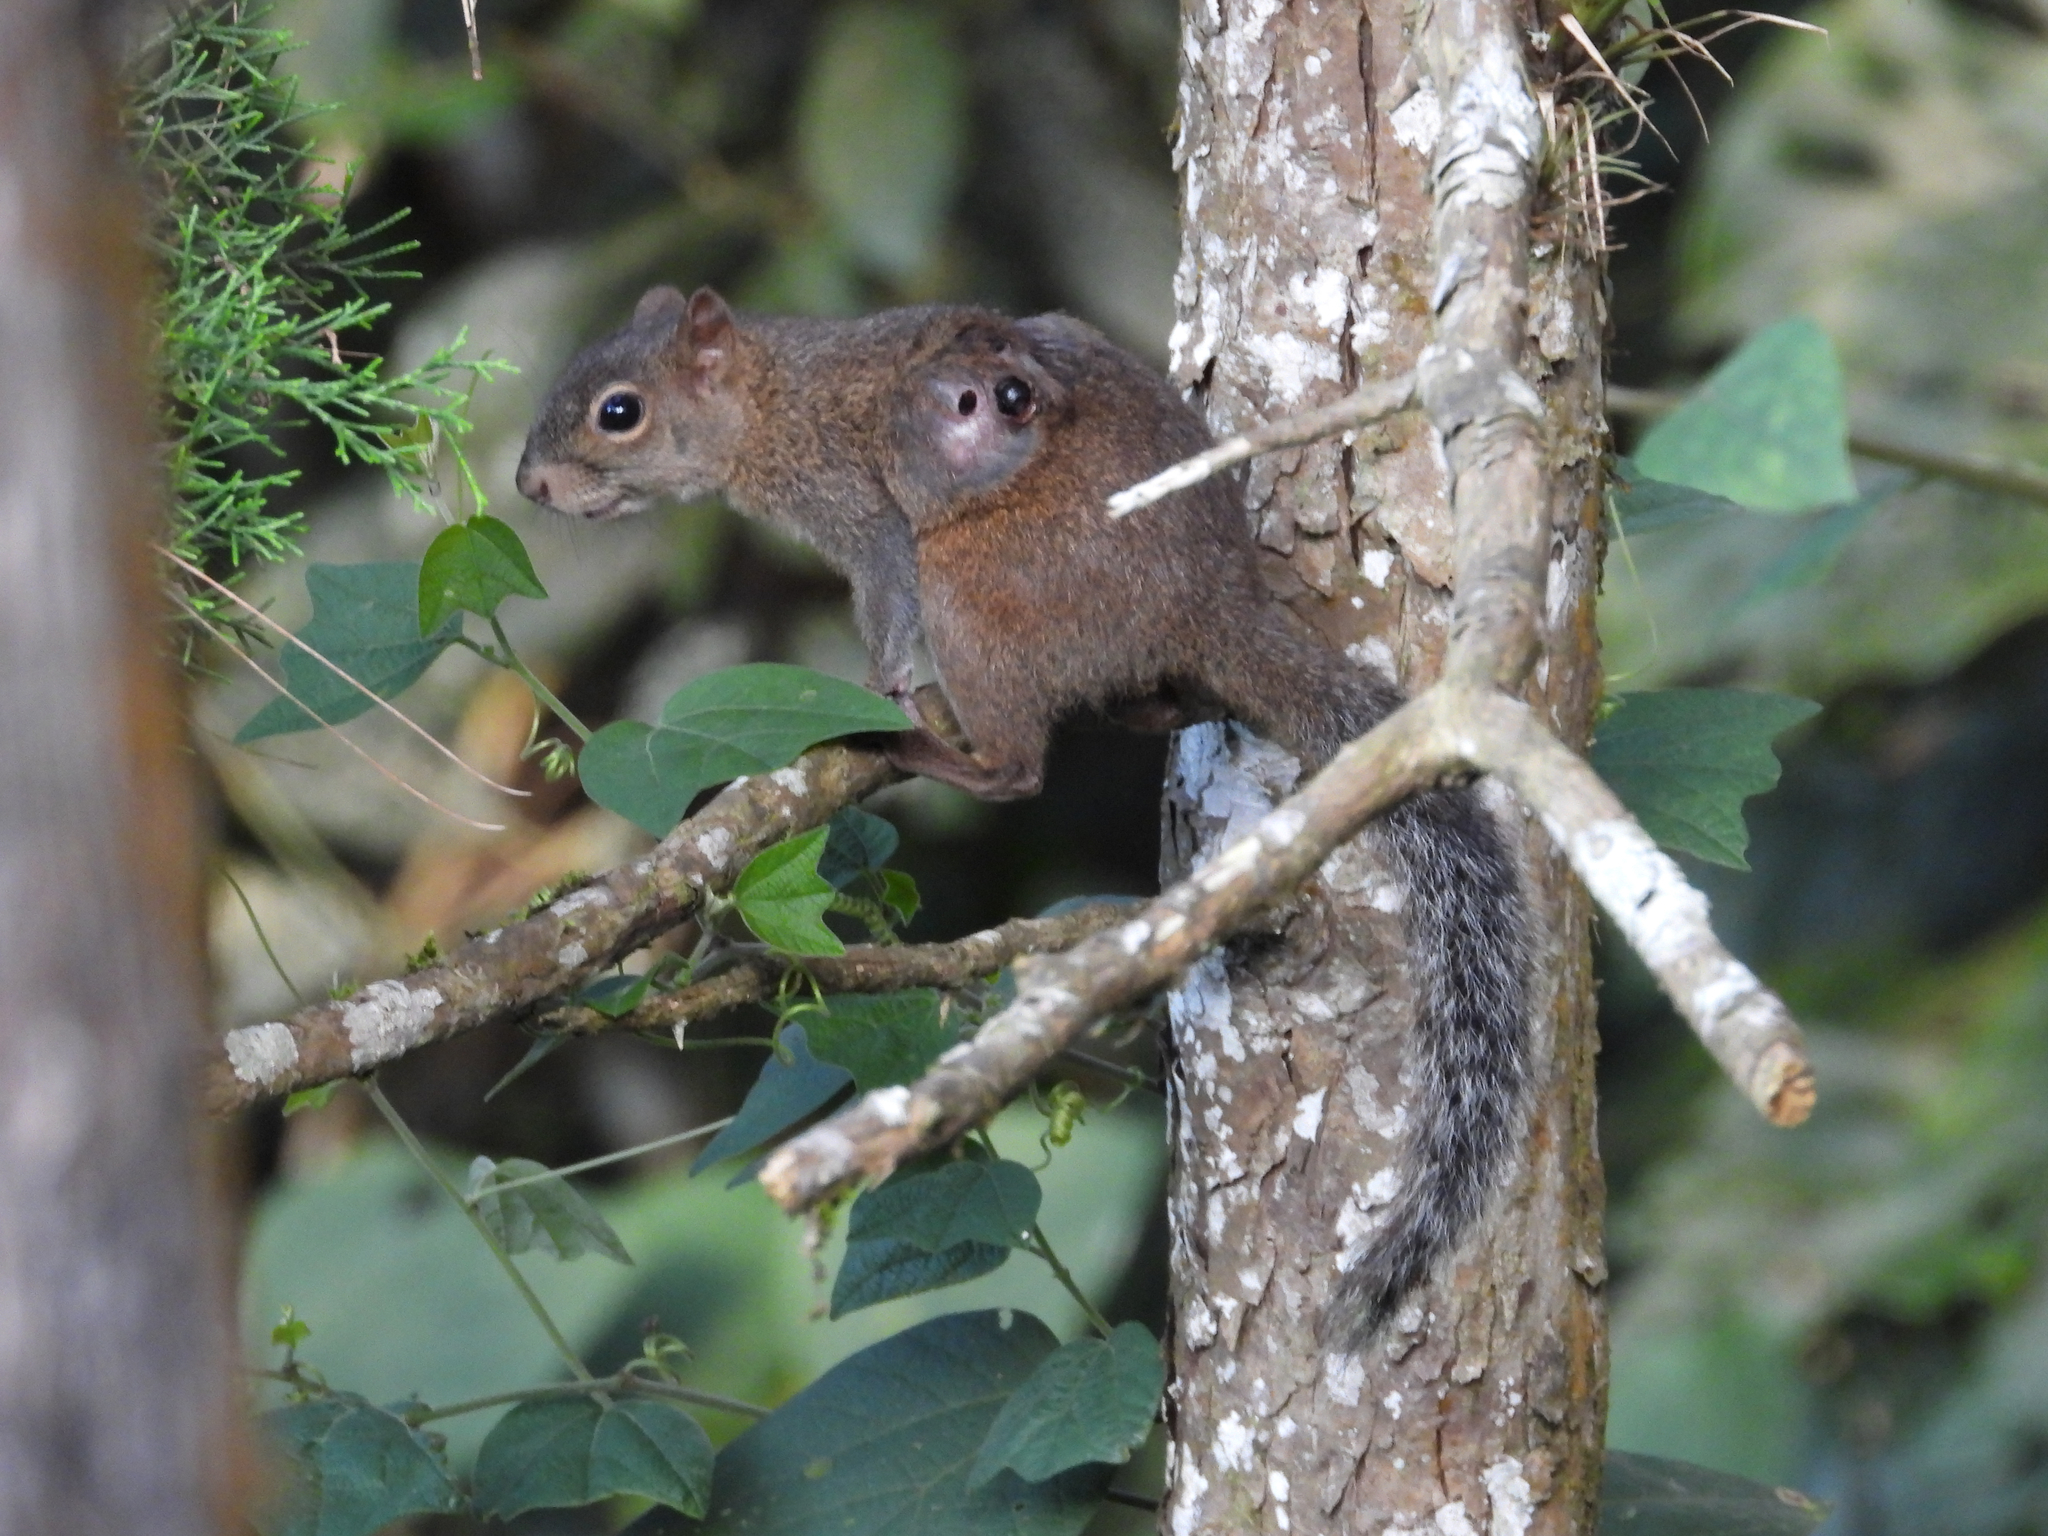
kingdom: Animalia
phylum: Chordata
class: Mammalia
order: Rodentia
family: Sciuridae
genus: Sciurus
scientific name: Sciurus deppei
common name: Deppe's squirrel
